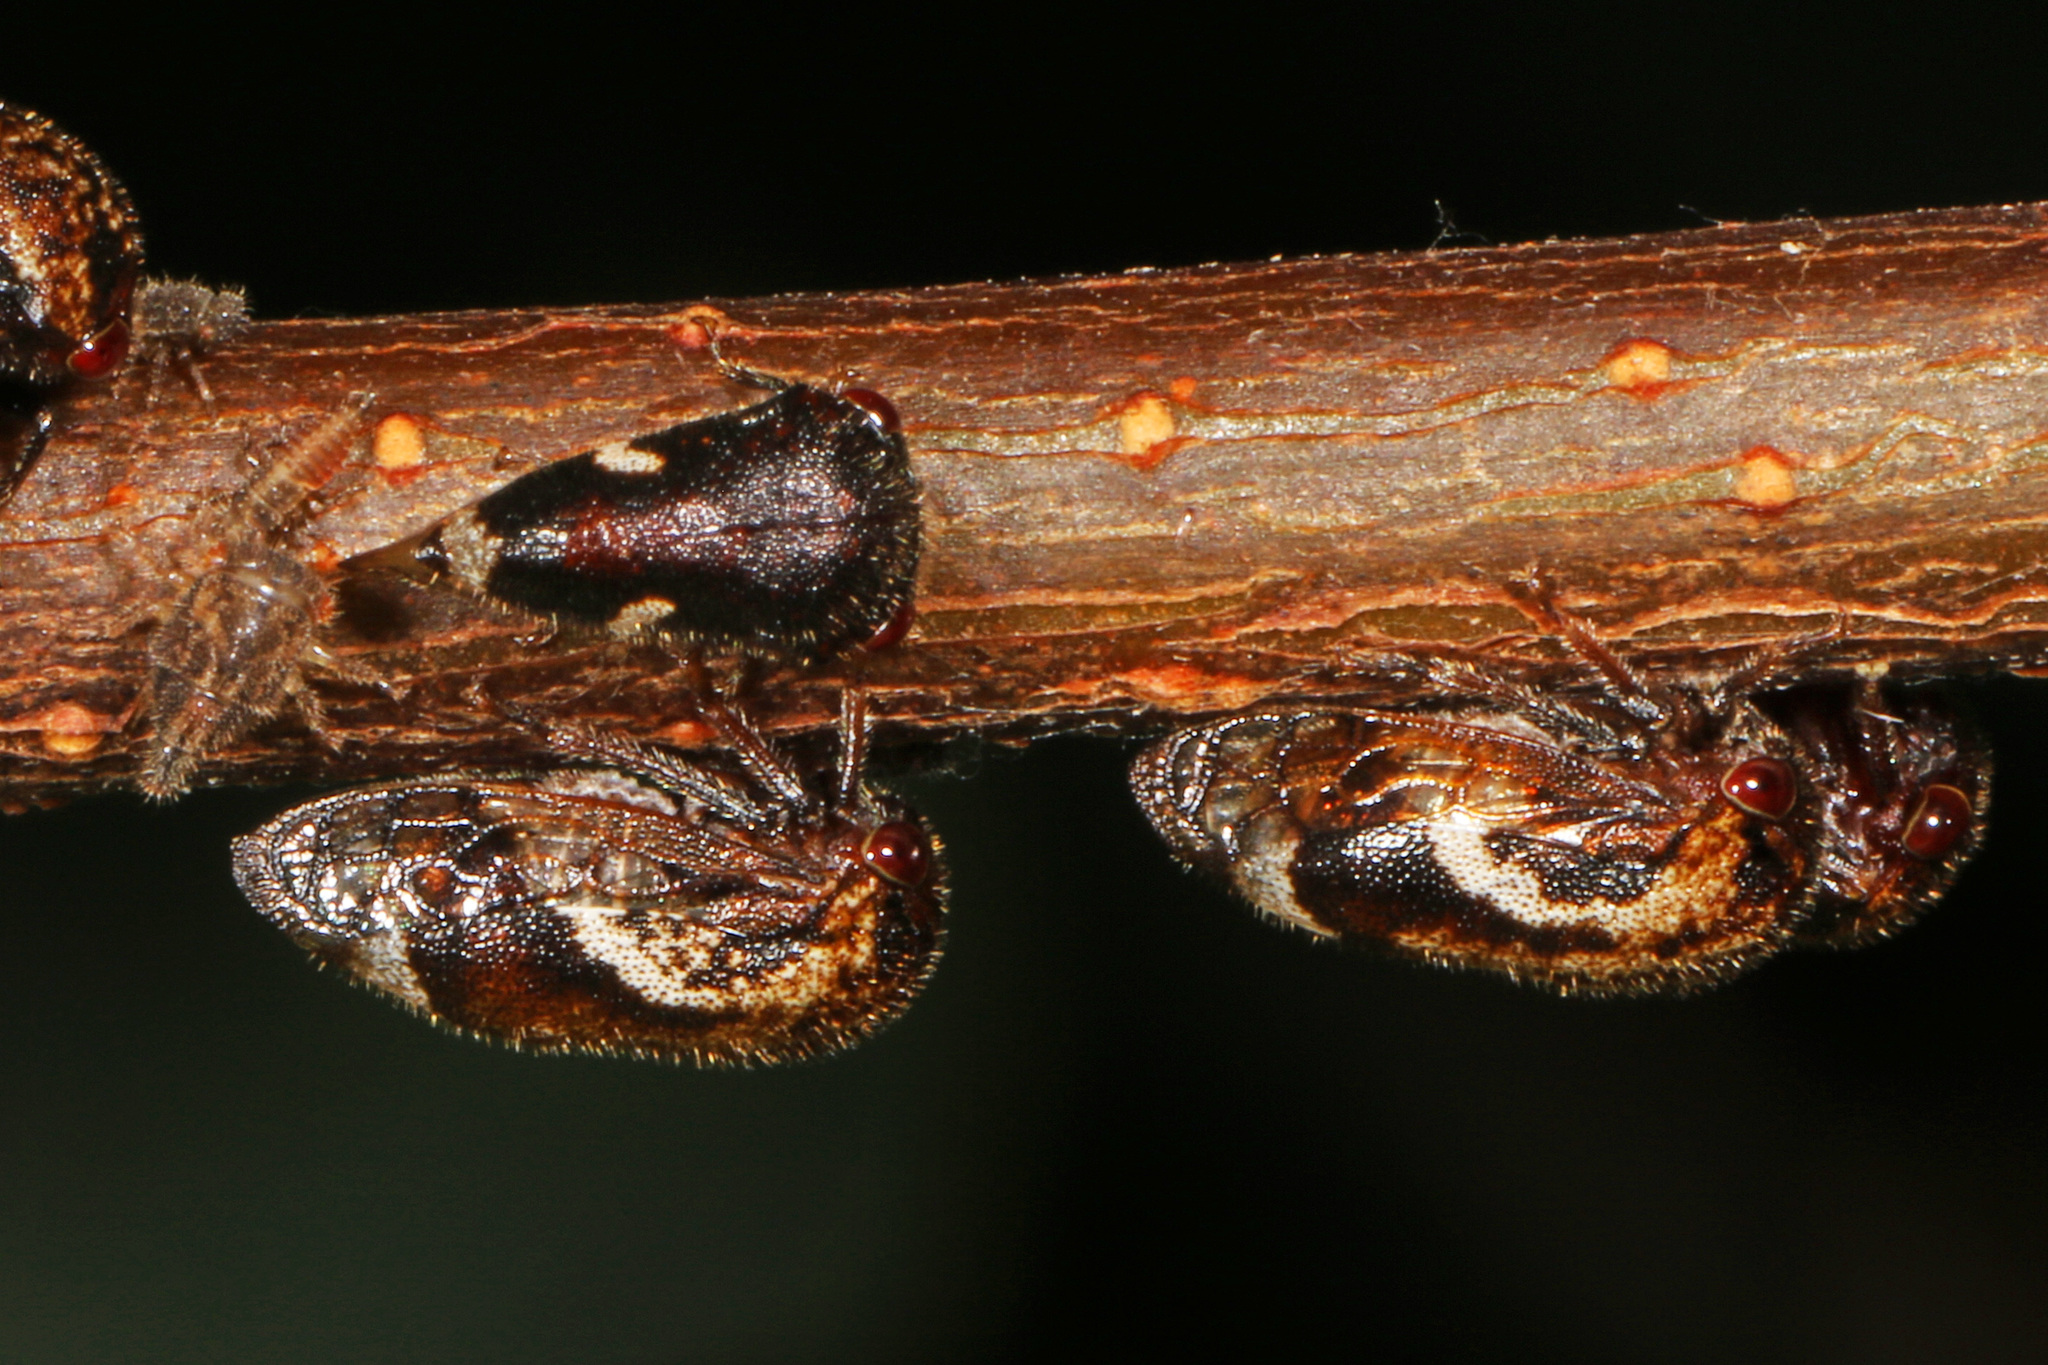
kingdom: Animalia
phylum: Arthropoda
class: Insecta
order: Hemiptera
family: Membracidae
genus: Vanduzea
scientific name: Vanduzea arquata
